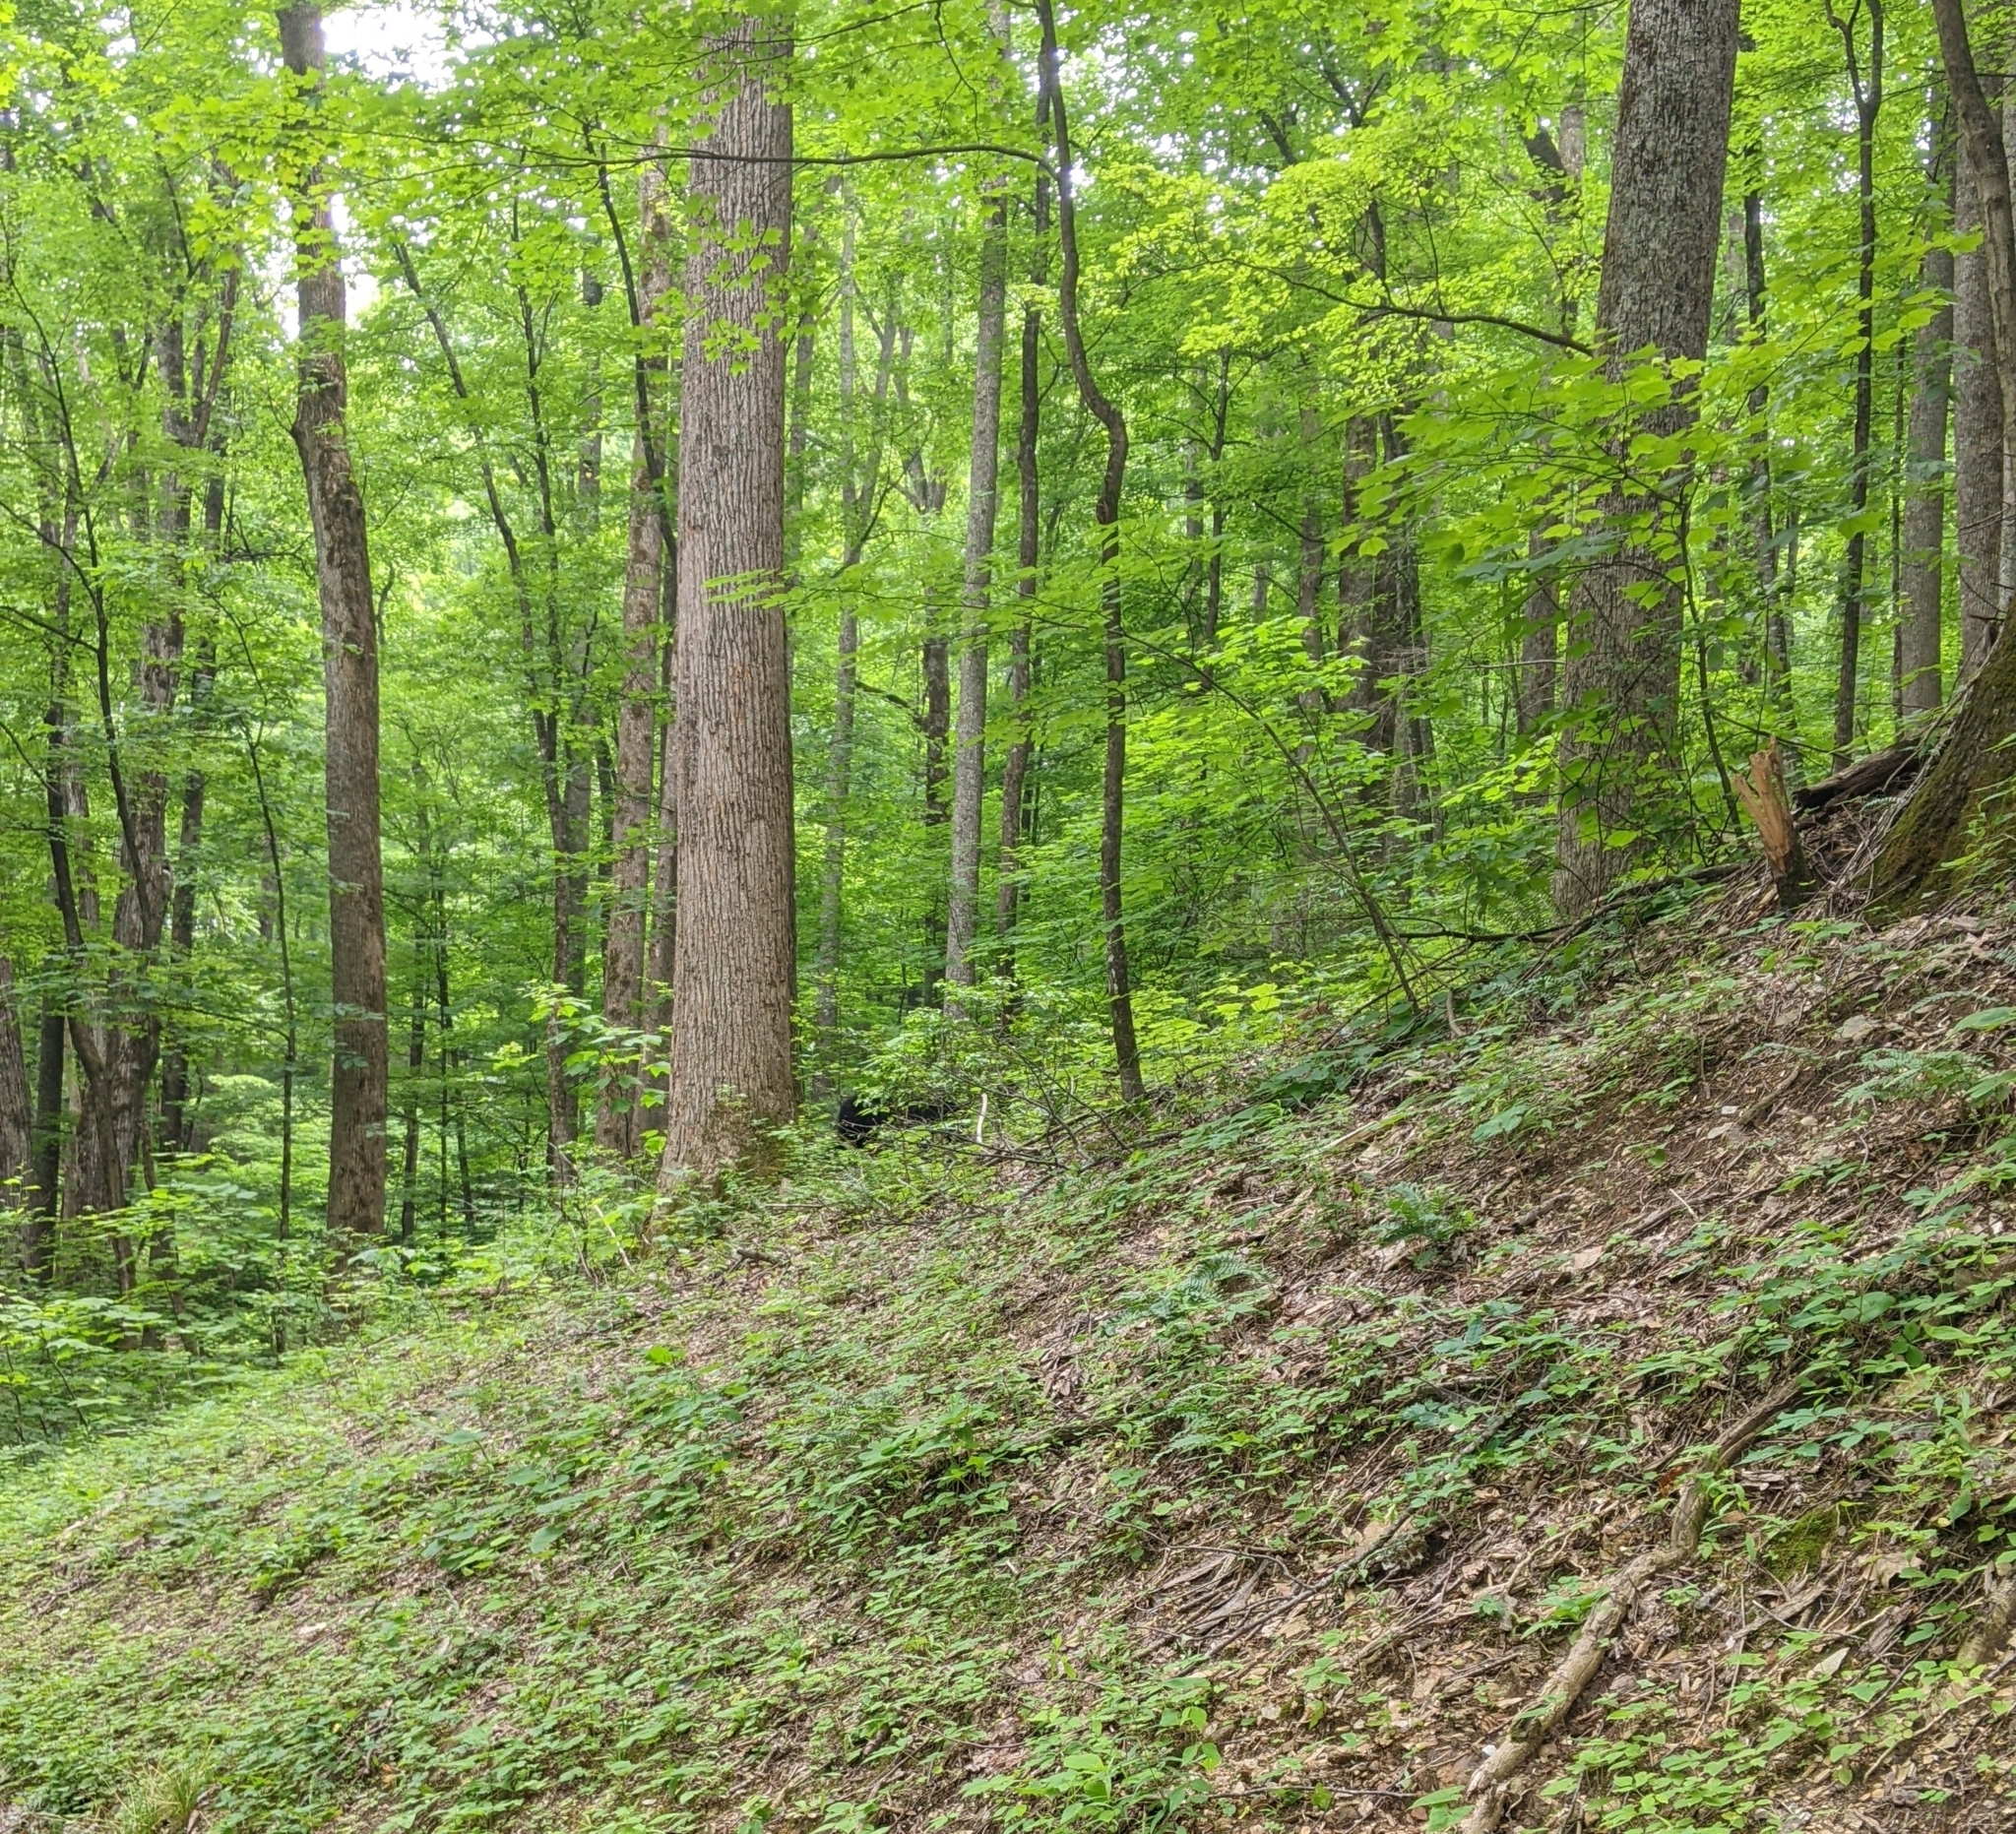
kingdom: Animalia
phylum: Chordata
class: Mammalia
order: Carnivora
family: Ursidae
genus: Ursus
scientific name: Ursus americanus
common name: American black bear
